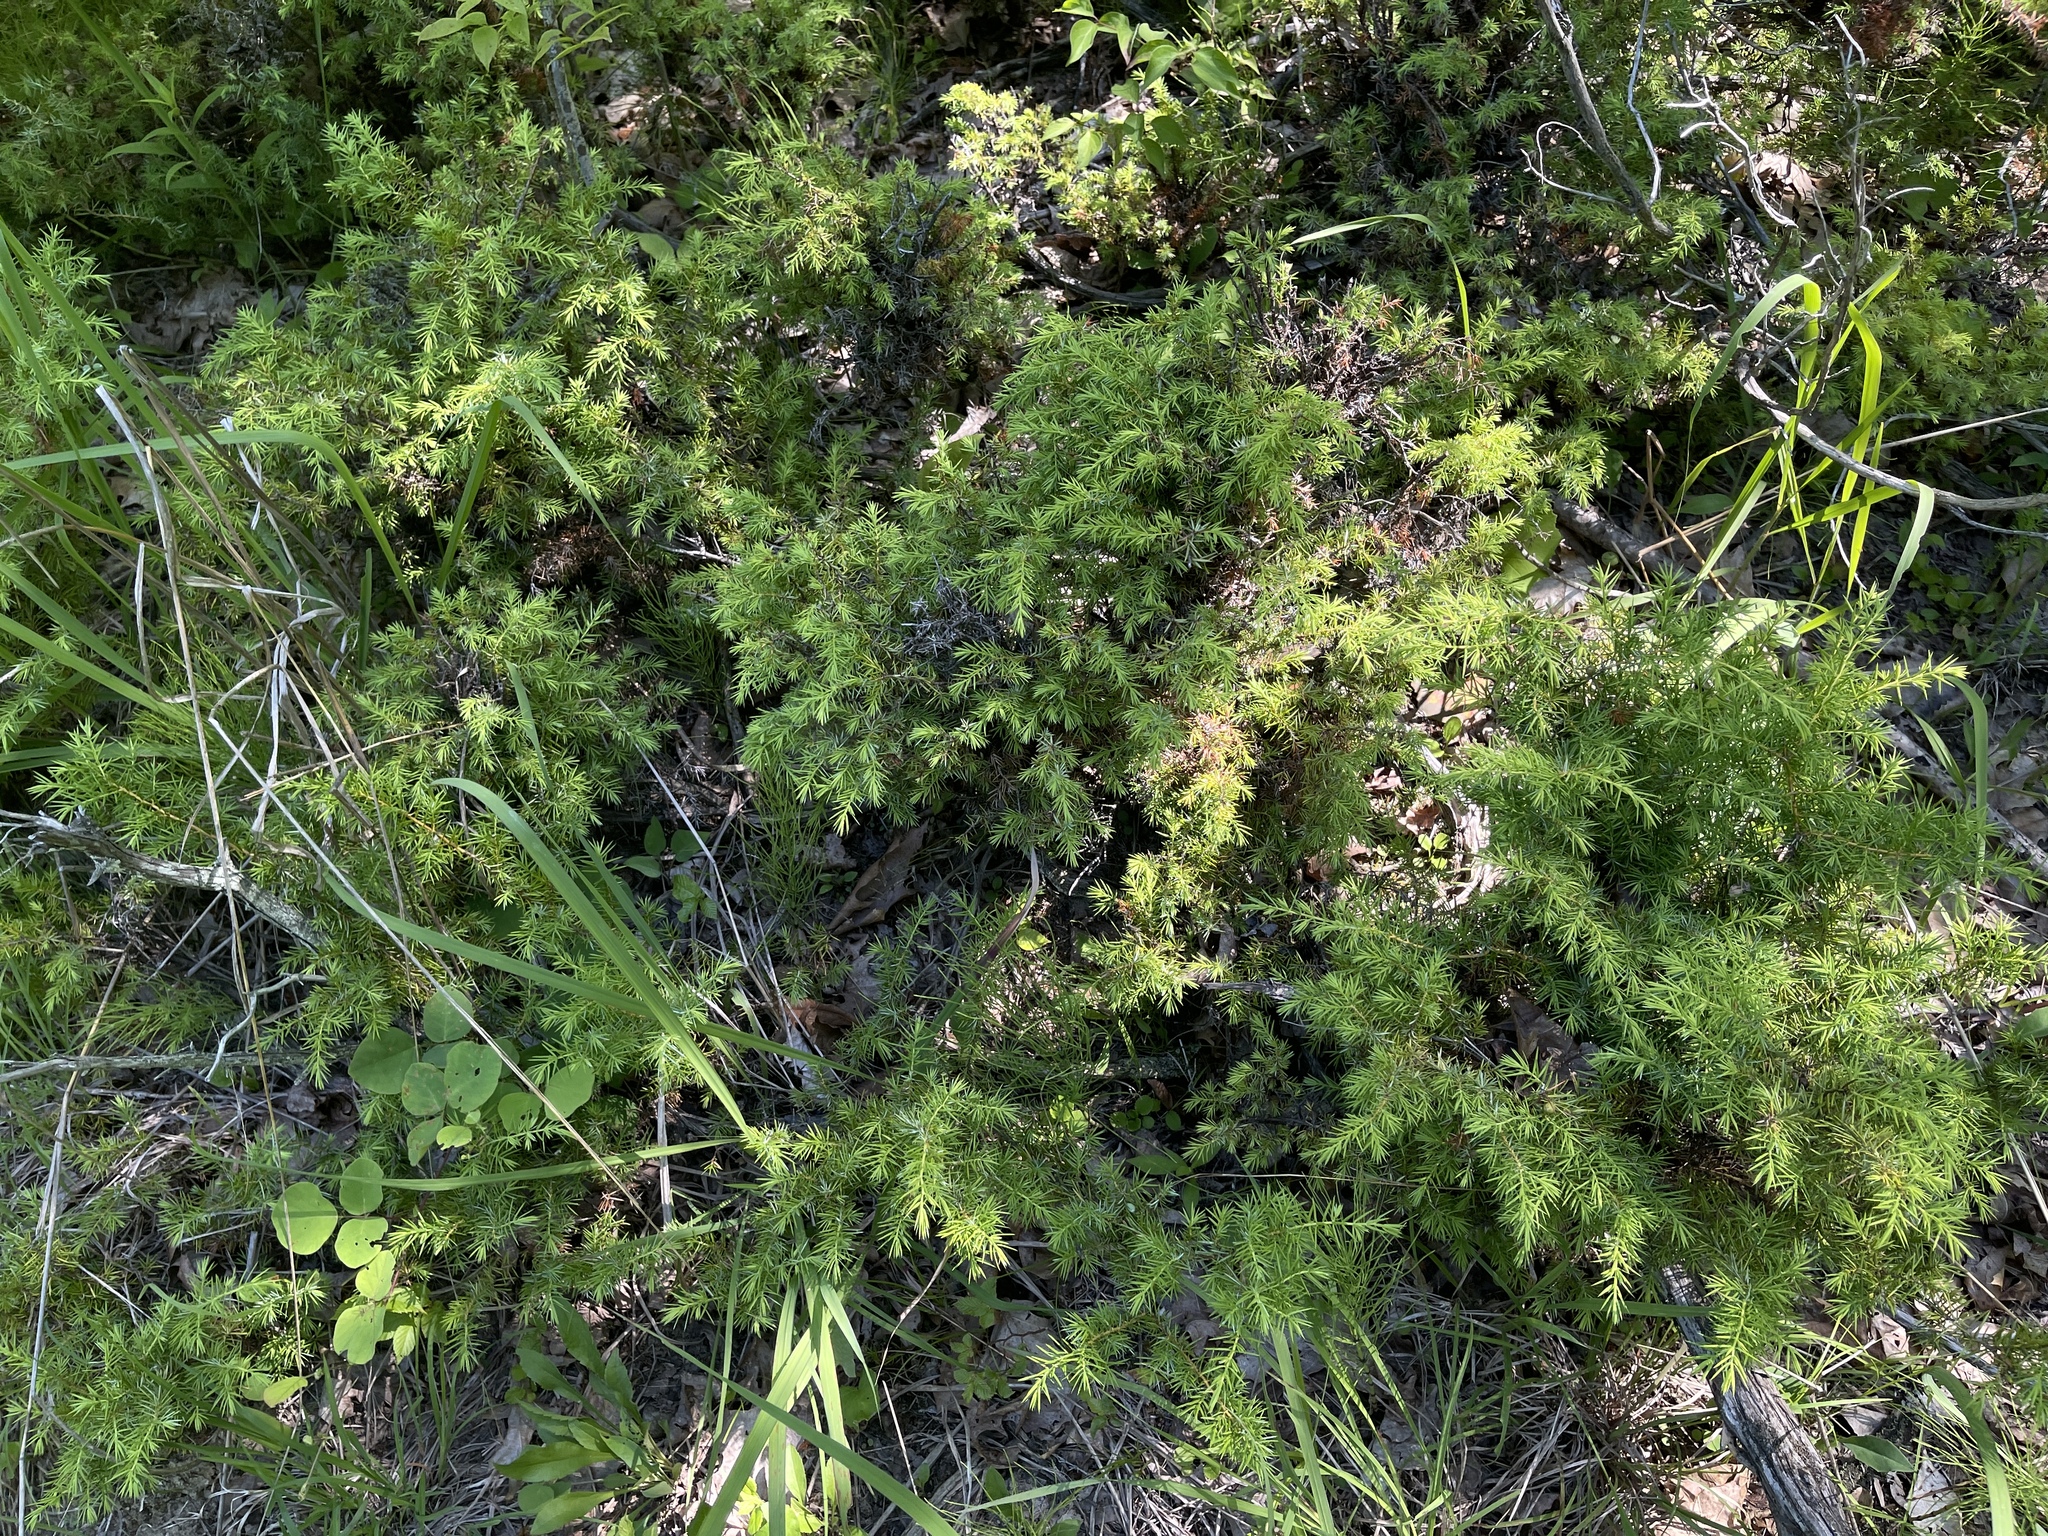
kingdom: Plantae
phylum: Tracheophyta
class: Pinopsida
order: Pinales
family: Cupressaceae
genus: Juniperus
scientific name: Juniperus communis
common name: Common juniper
